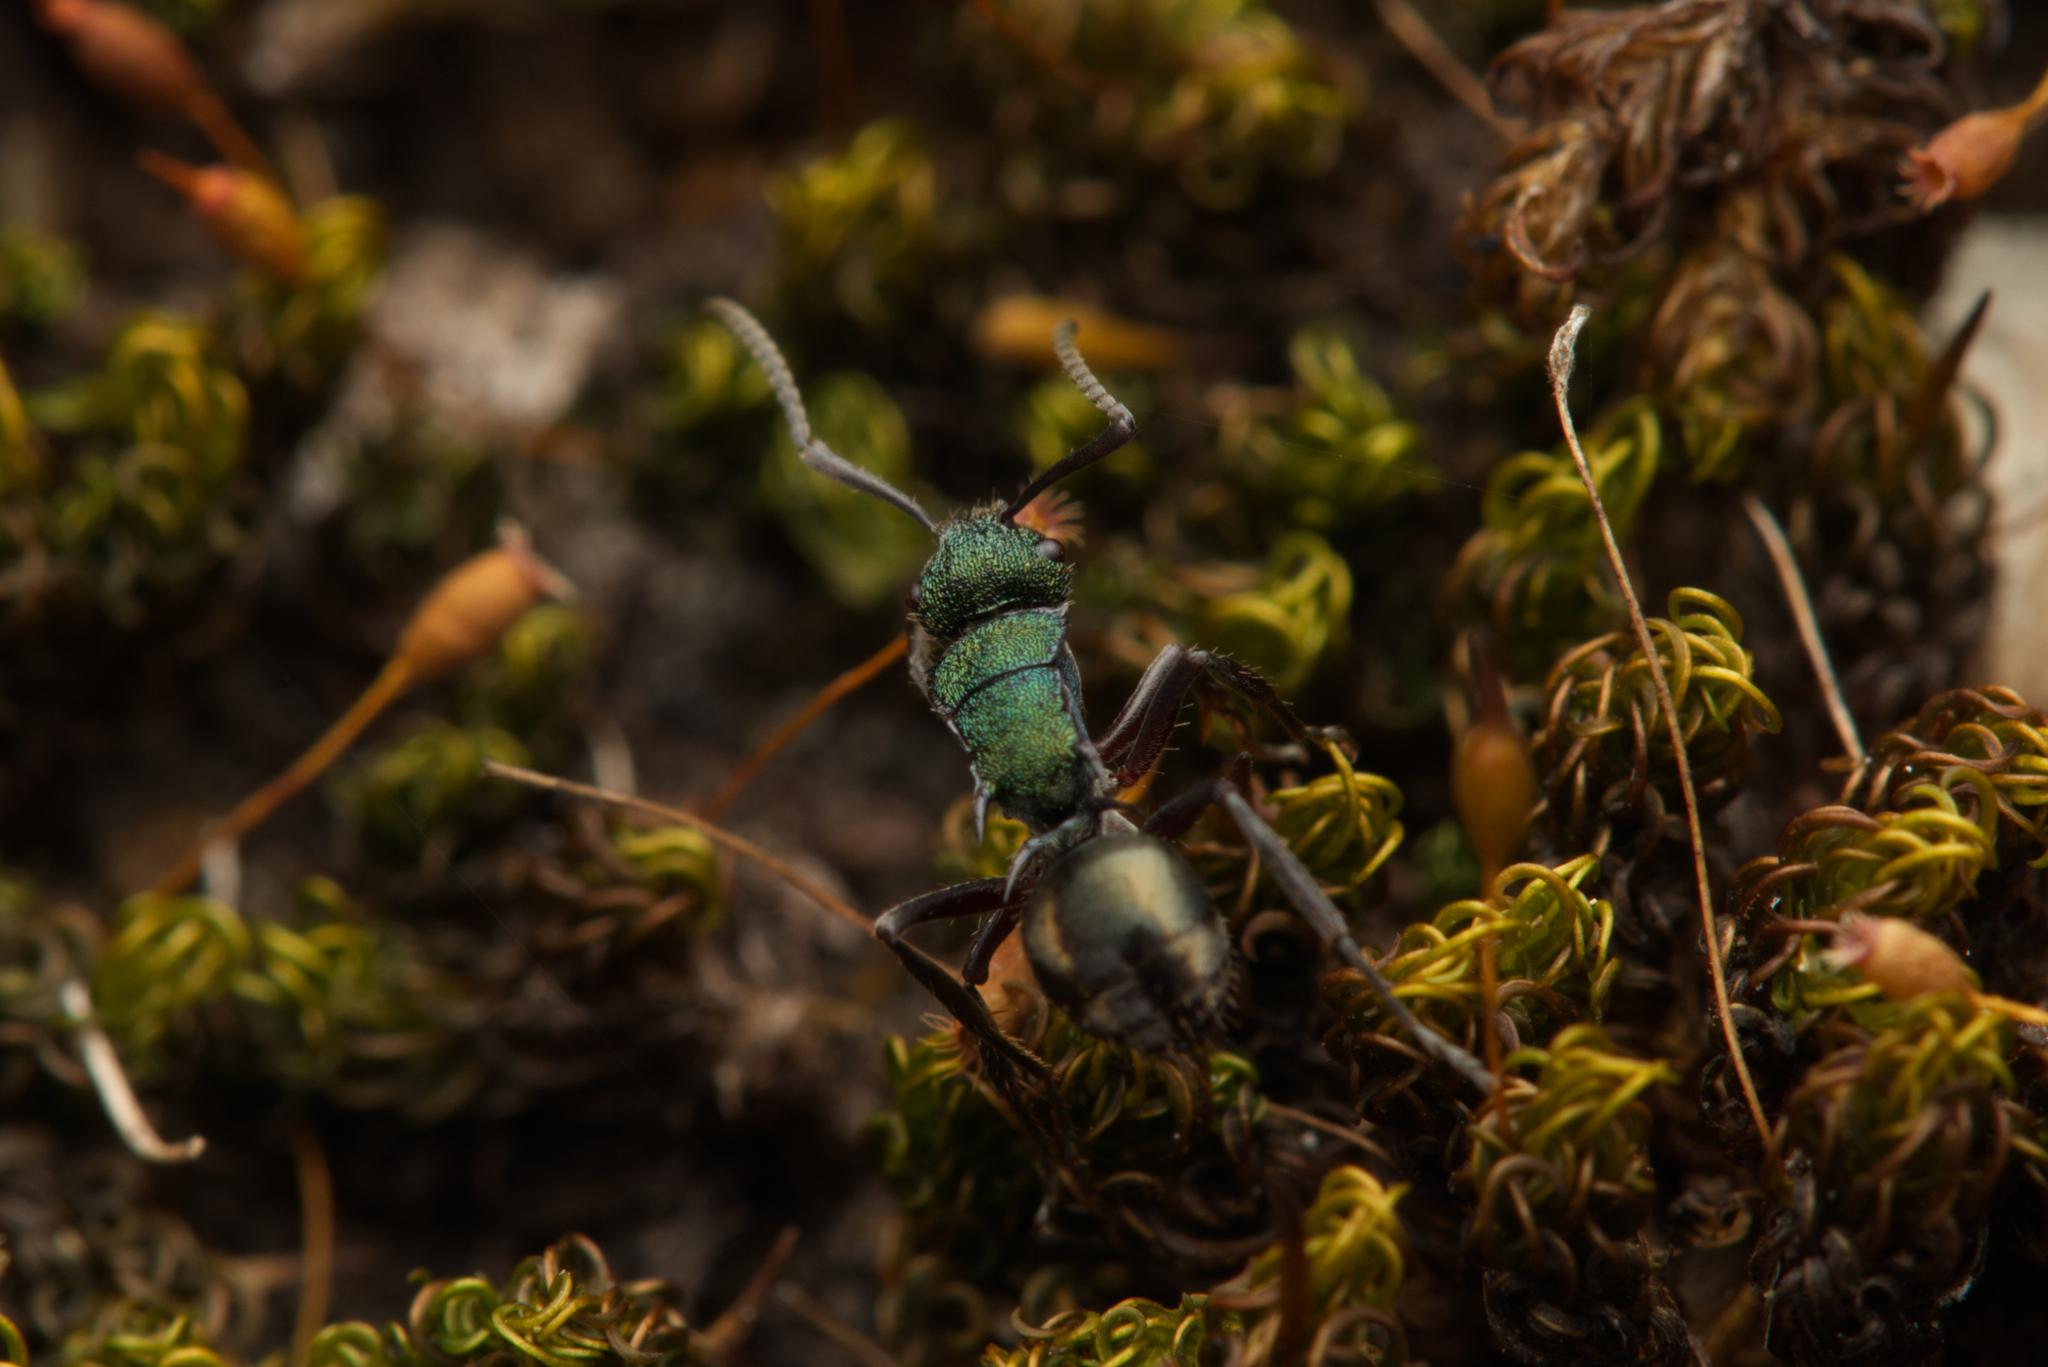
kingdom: Animalia
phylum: Arthropoda
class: Insecta
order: Hymenoptera
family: Formicidae
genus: Polyrhachis
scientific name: Polyrhachis hookeri
